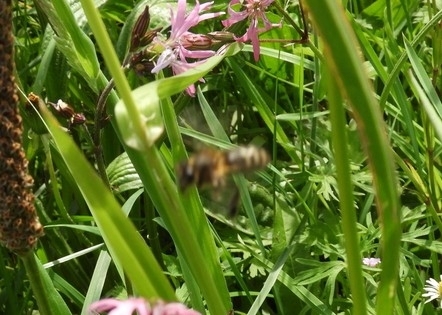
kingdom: Animalia
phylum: Arthropoda
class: Insecta
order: Hymenoptera
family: Apidae
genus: Apis
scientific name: Apis mellifera
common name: Honey bee
